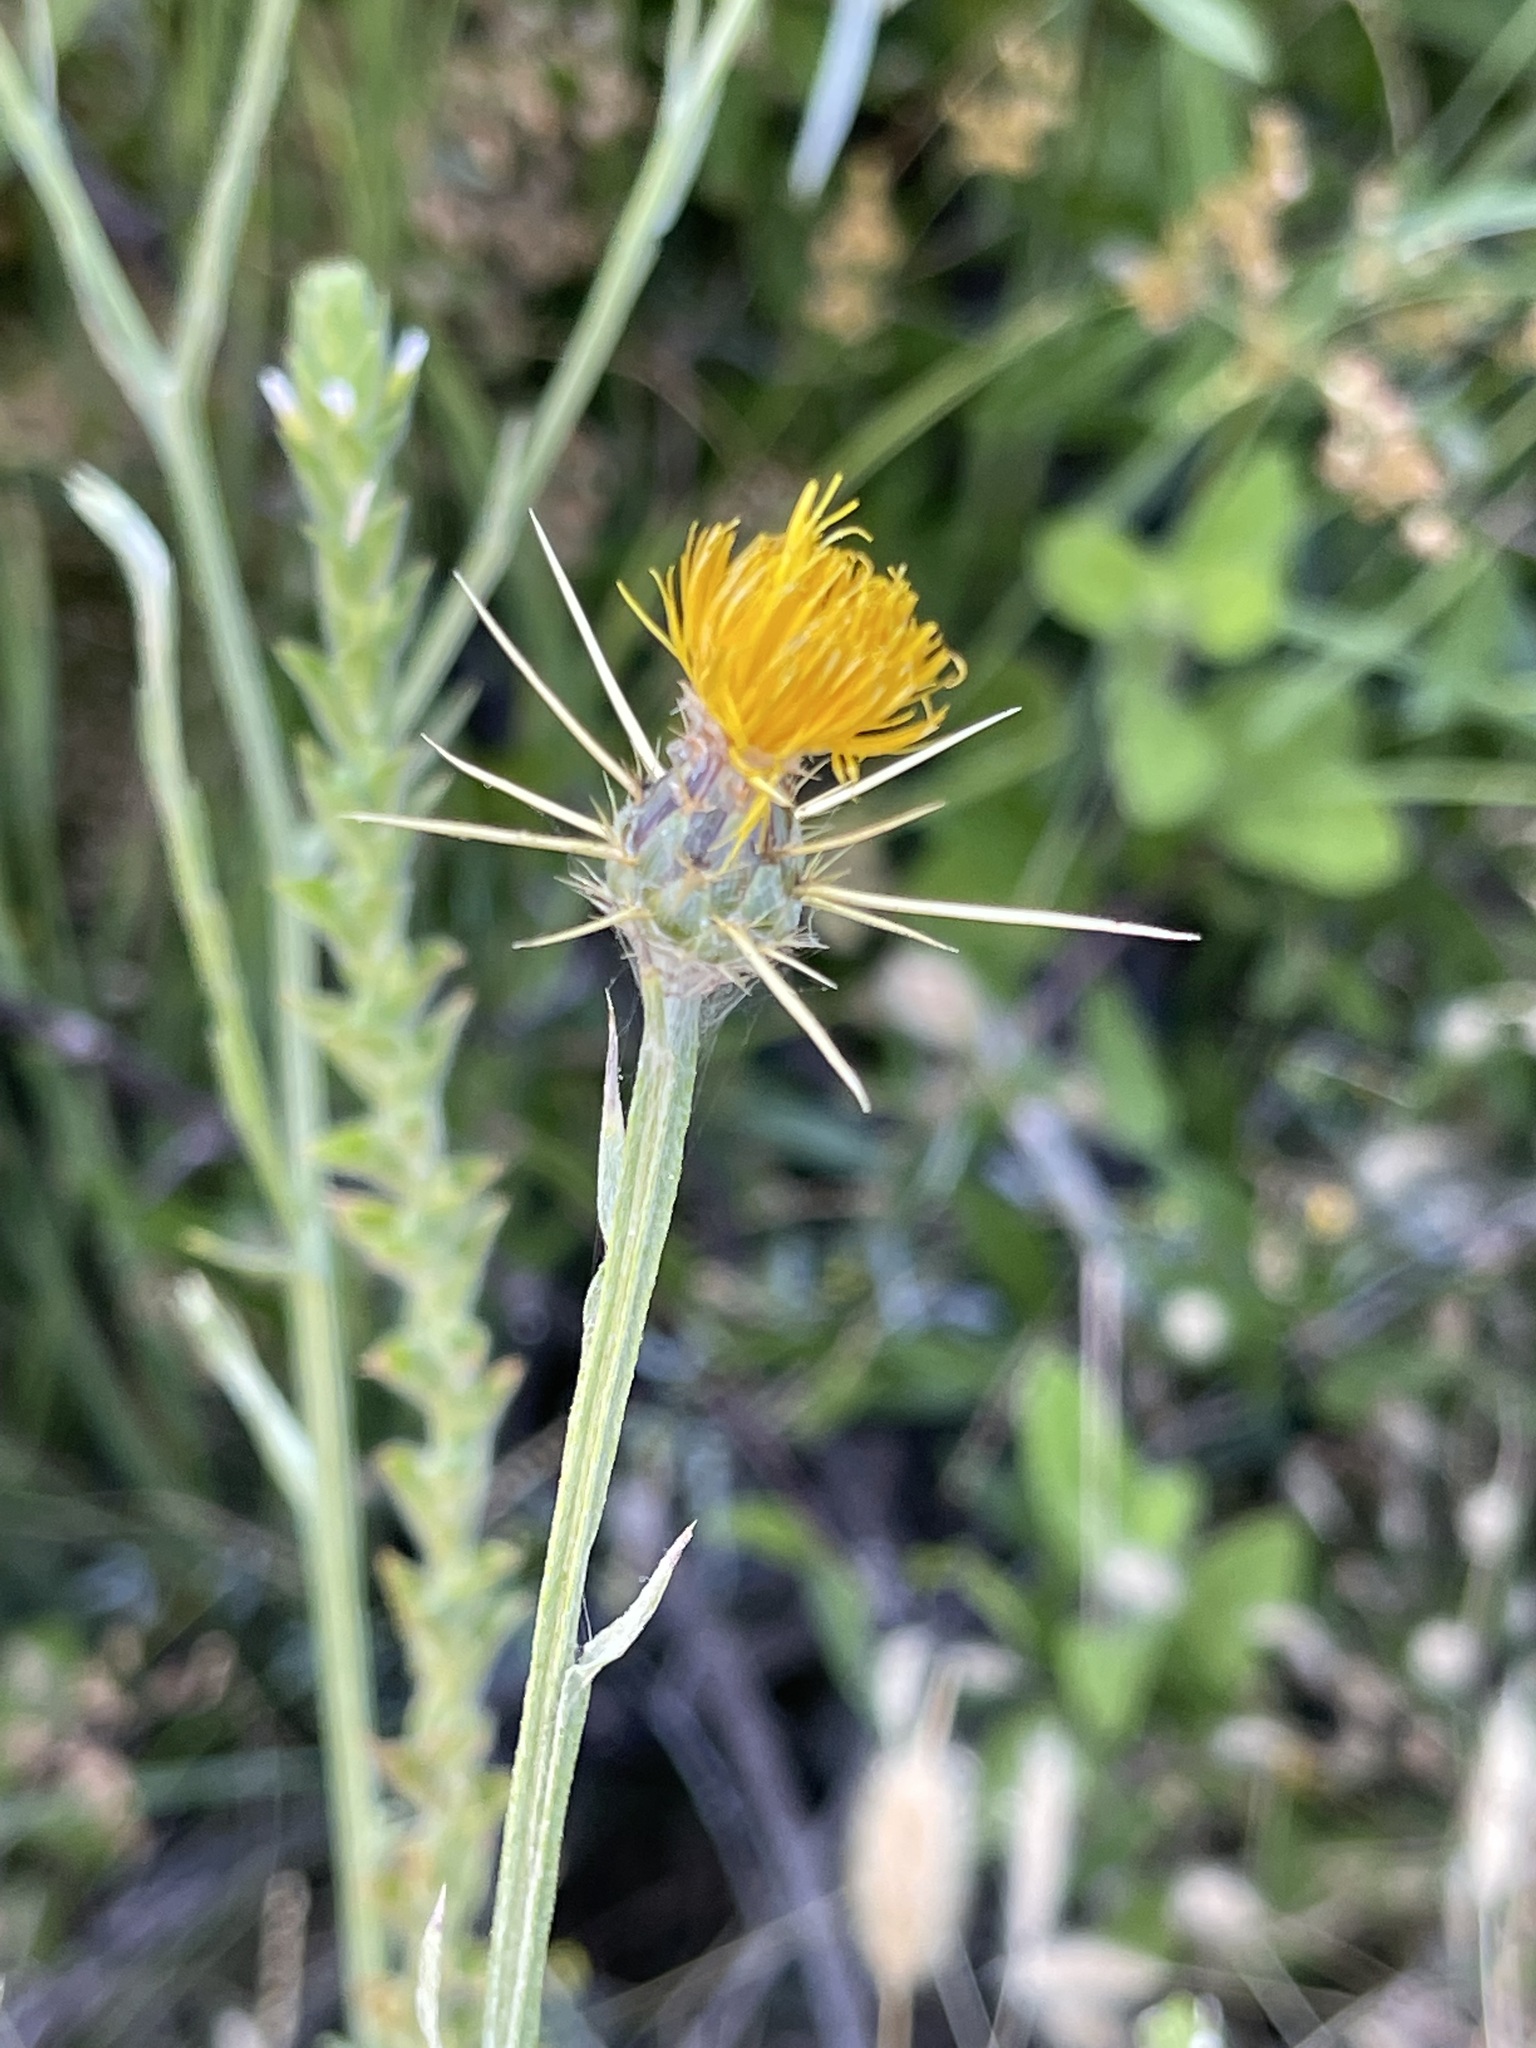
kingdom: Plantae
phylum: Tracheophyta
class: Magnoliopsida
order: Asterales
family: Asteraceae
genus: Centaurea
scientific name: Centaurea solstitialis
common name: Yellow star-thistle
